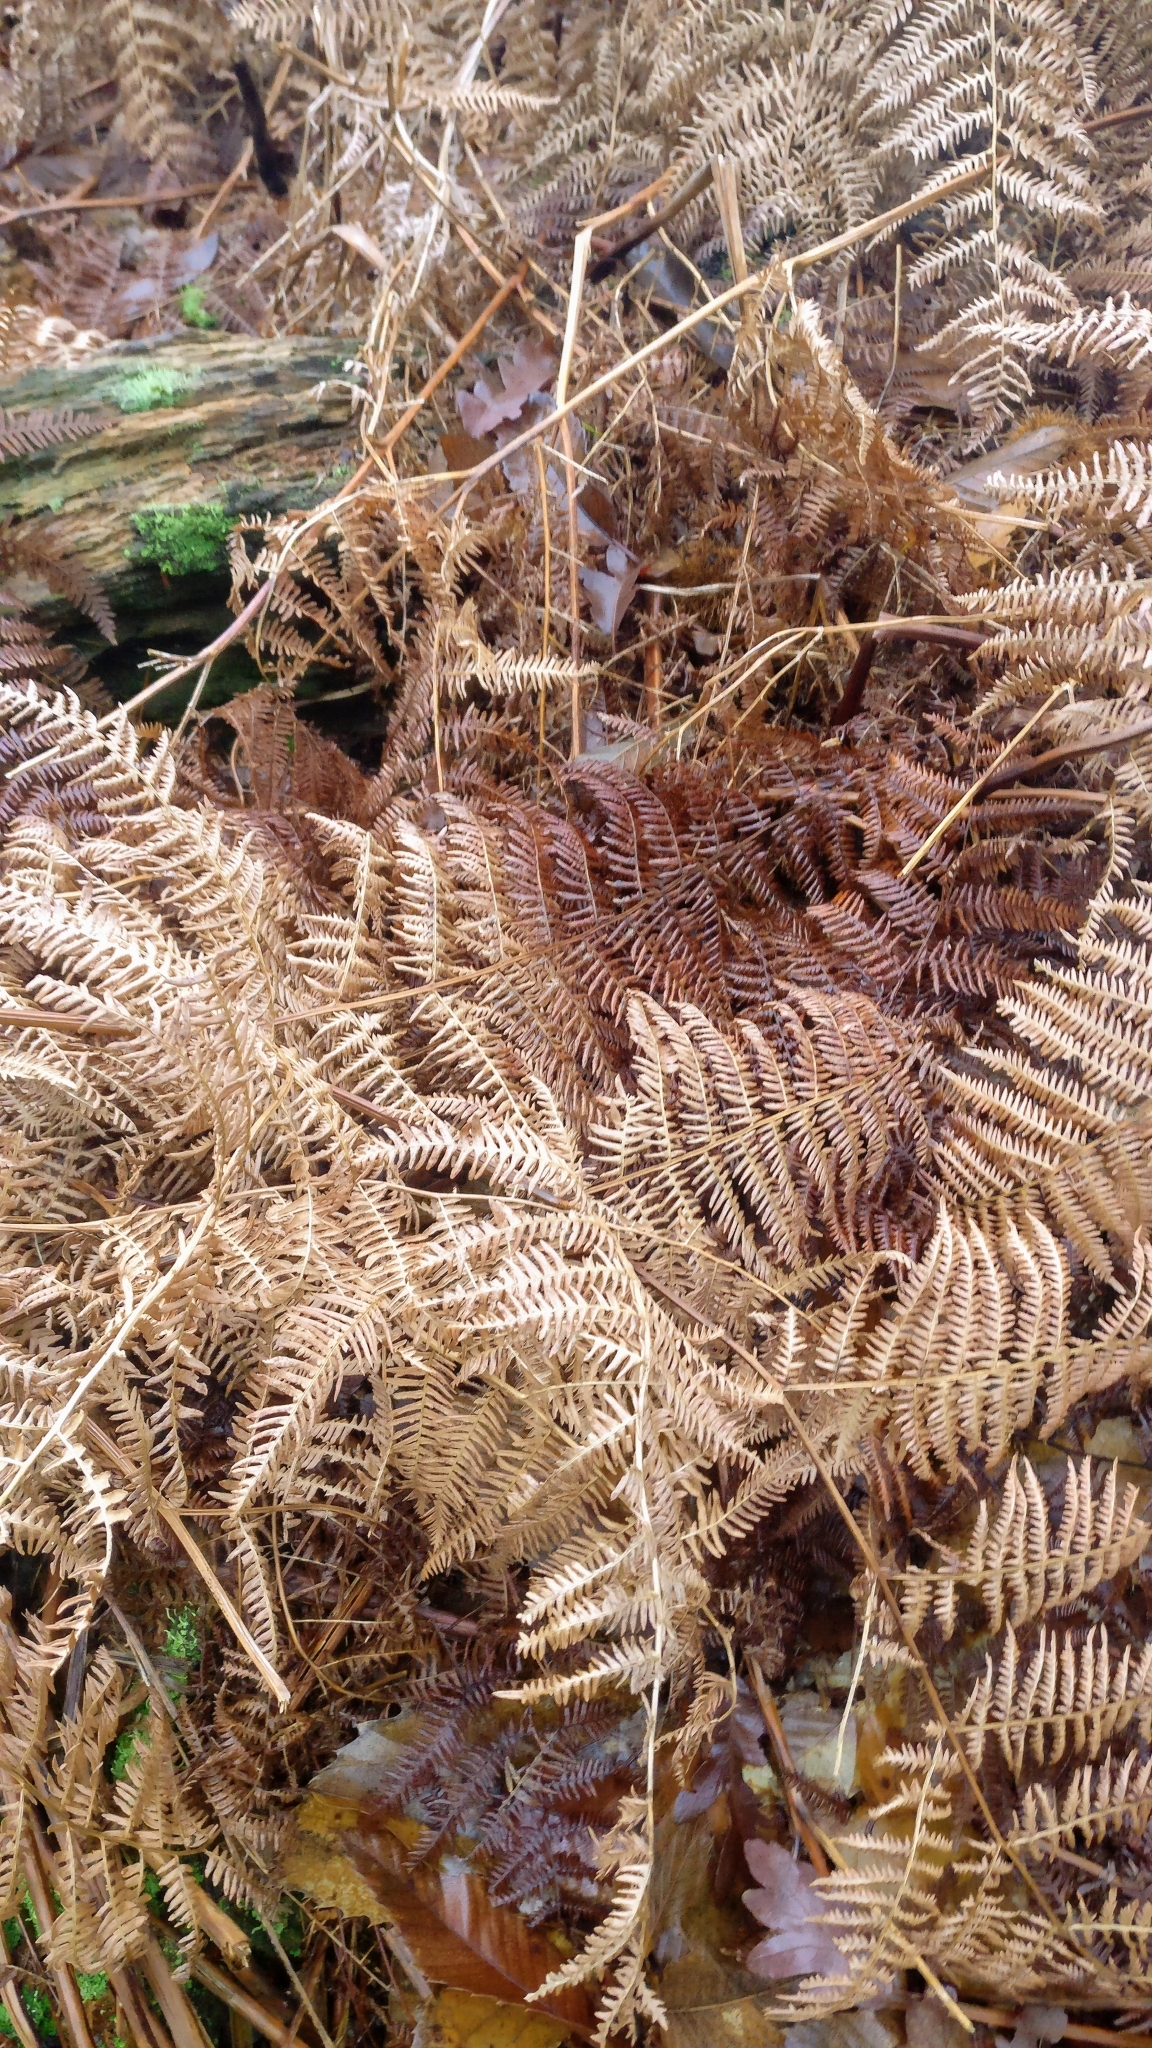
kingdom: Plantae
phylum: Tracheophyta
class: Polypodiopsida
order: Polypodiales
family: Dennstaedtiaceae
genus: Pteridium
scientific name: Pteridium aquilinum
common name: Bracken
